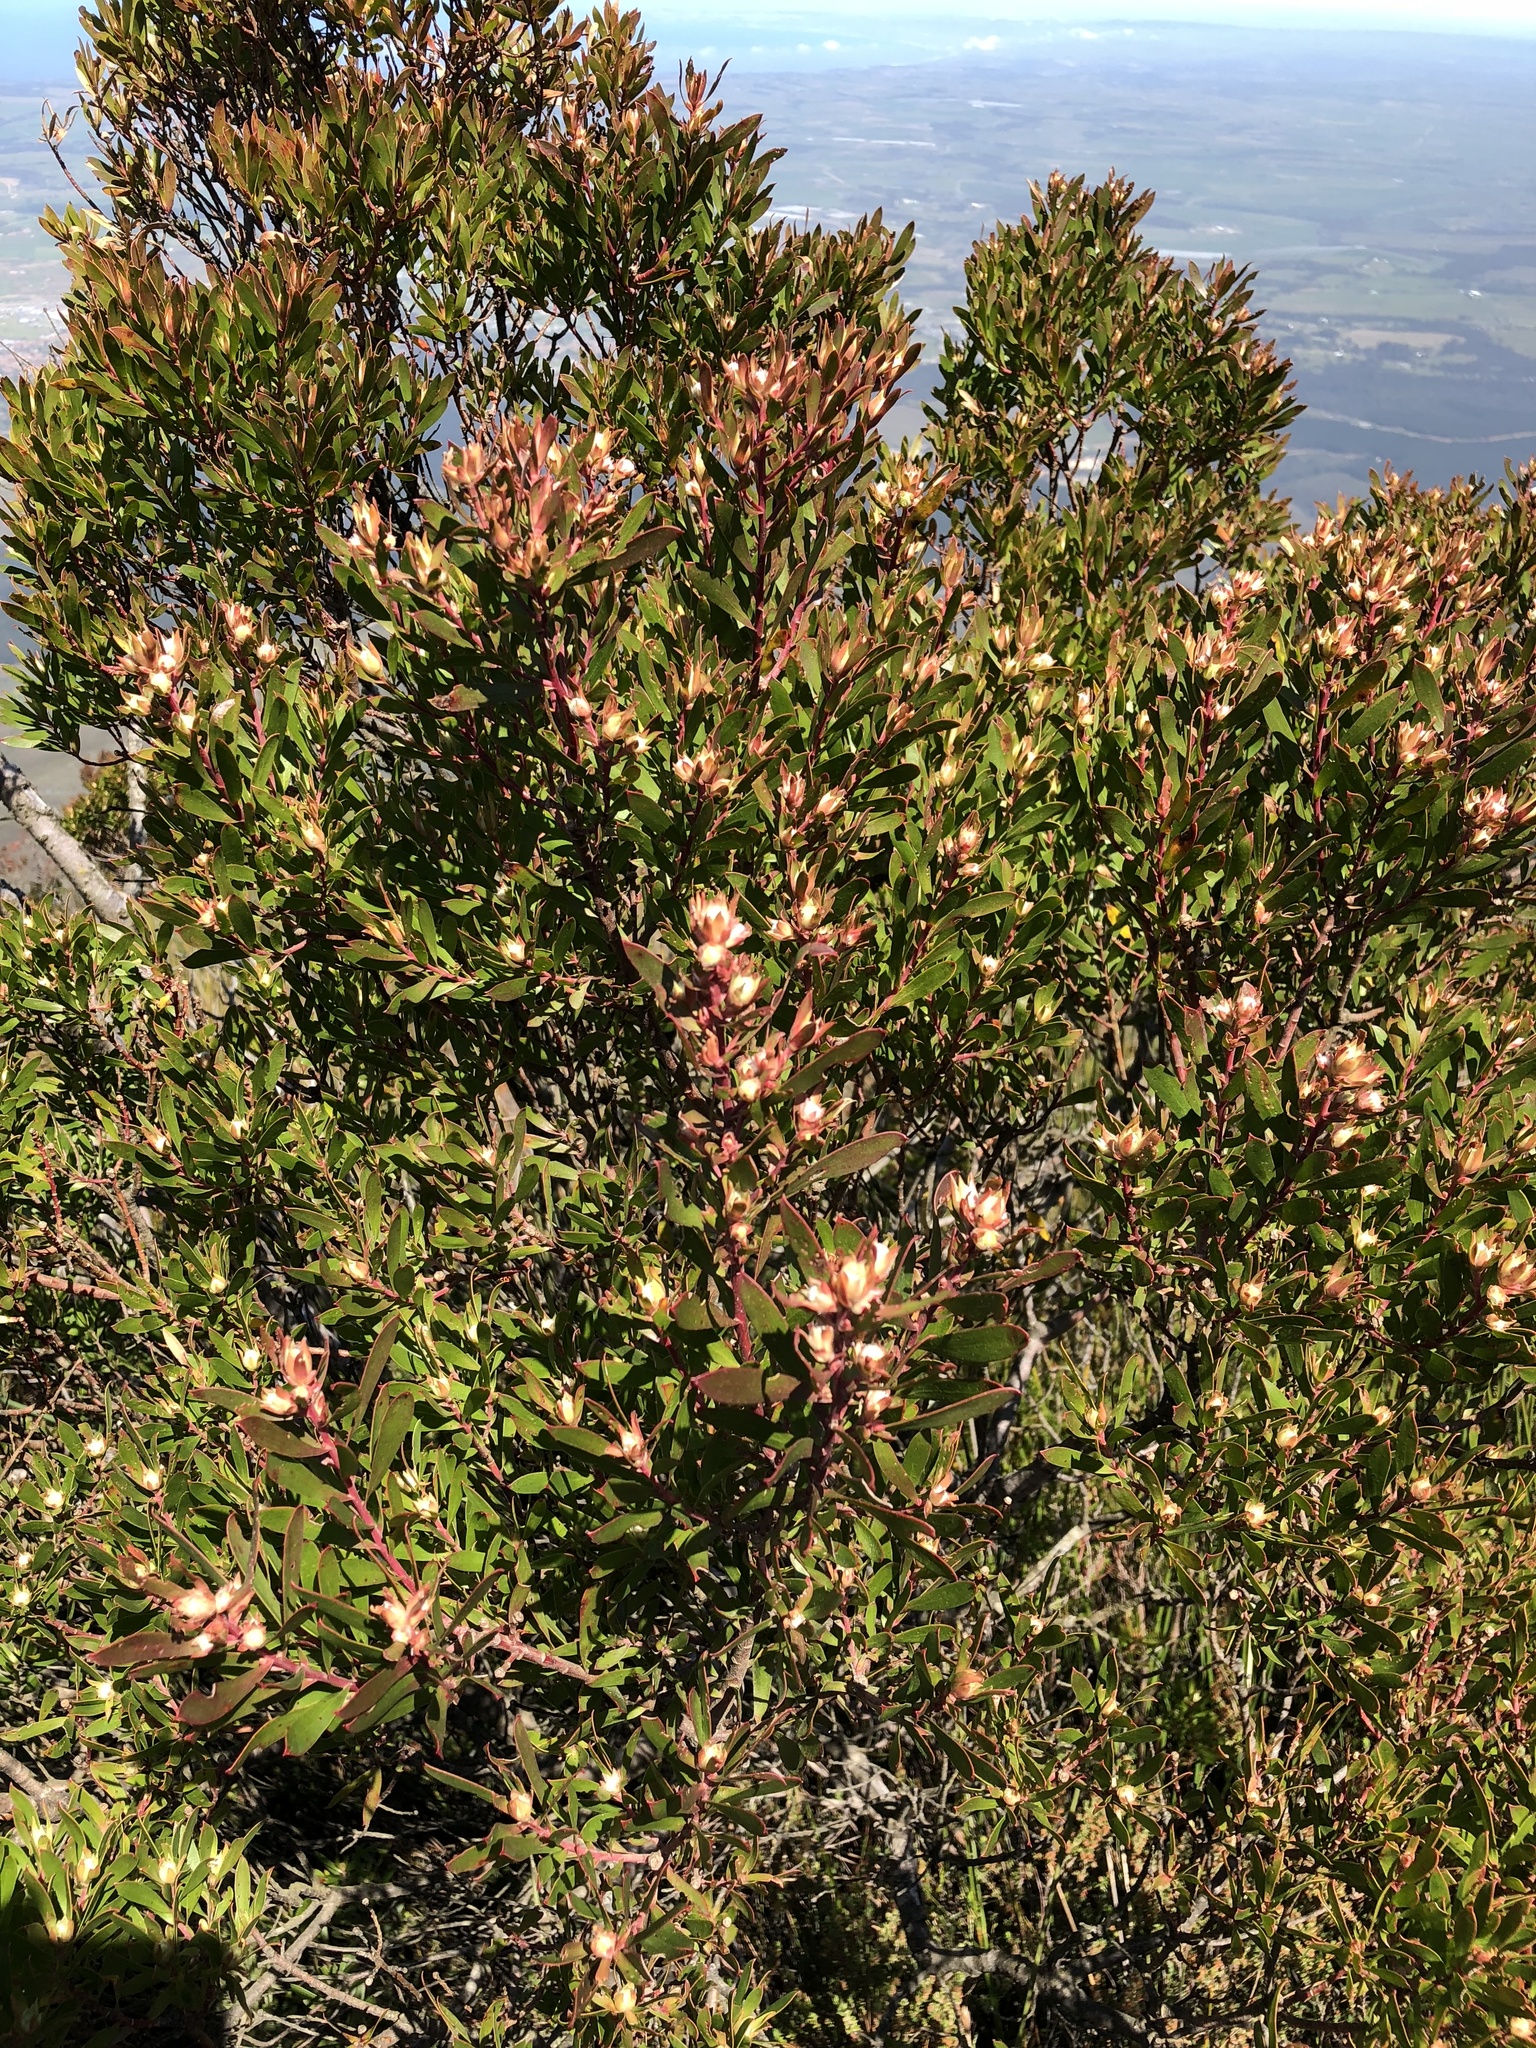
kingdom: Plantae
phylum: Tracheophyta
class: Magnoliopsida
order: Proteales
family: Proteaceae
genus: Leucadendron
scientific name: Leucadendron conicum
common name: Garden route conebush
